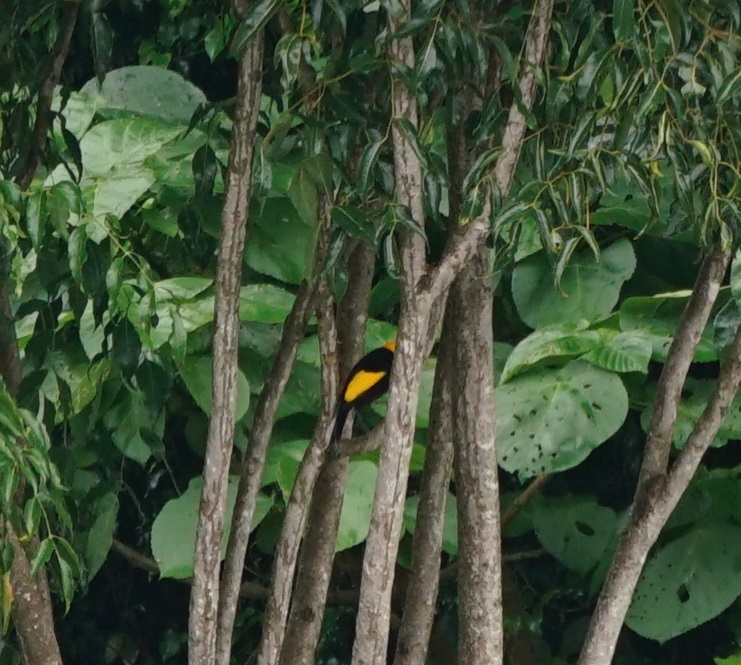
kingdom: Animalia
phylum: Chordata
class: Aves
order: Passeriformes
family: Ptilonorhynchidae
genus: Sericulus
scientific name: Sericulus chrysocephalus
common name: Regent bowerbird
